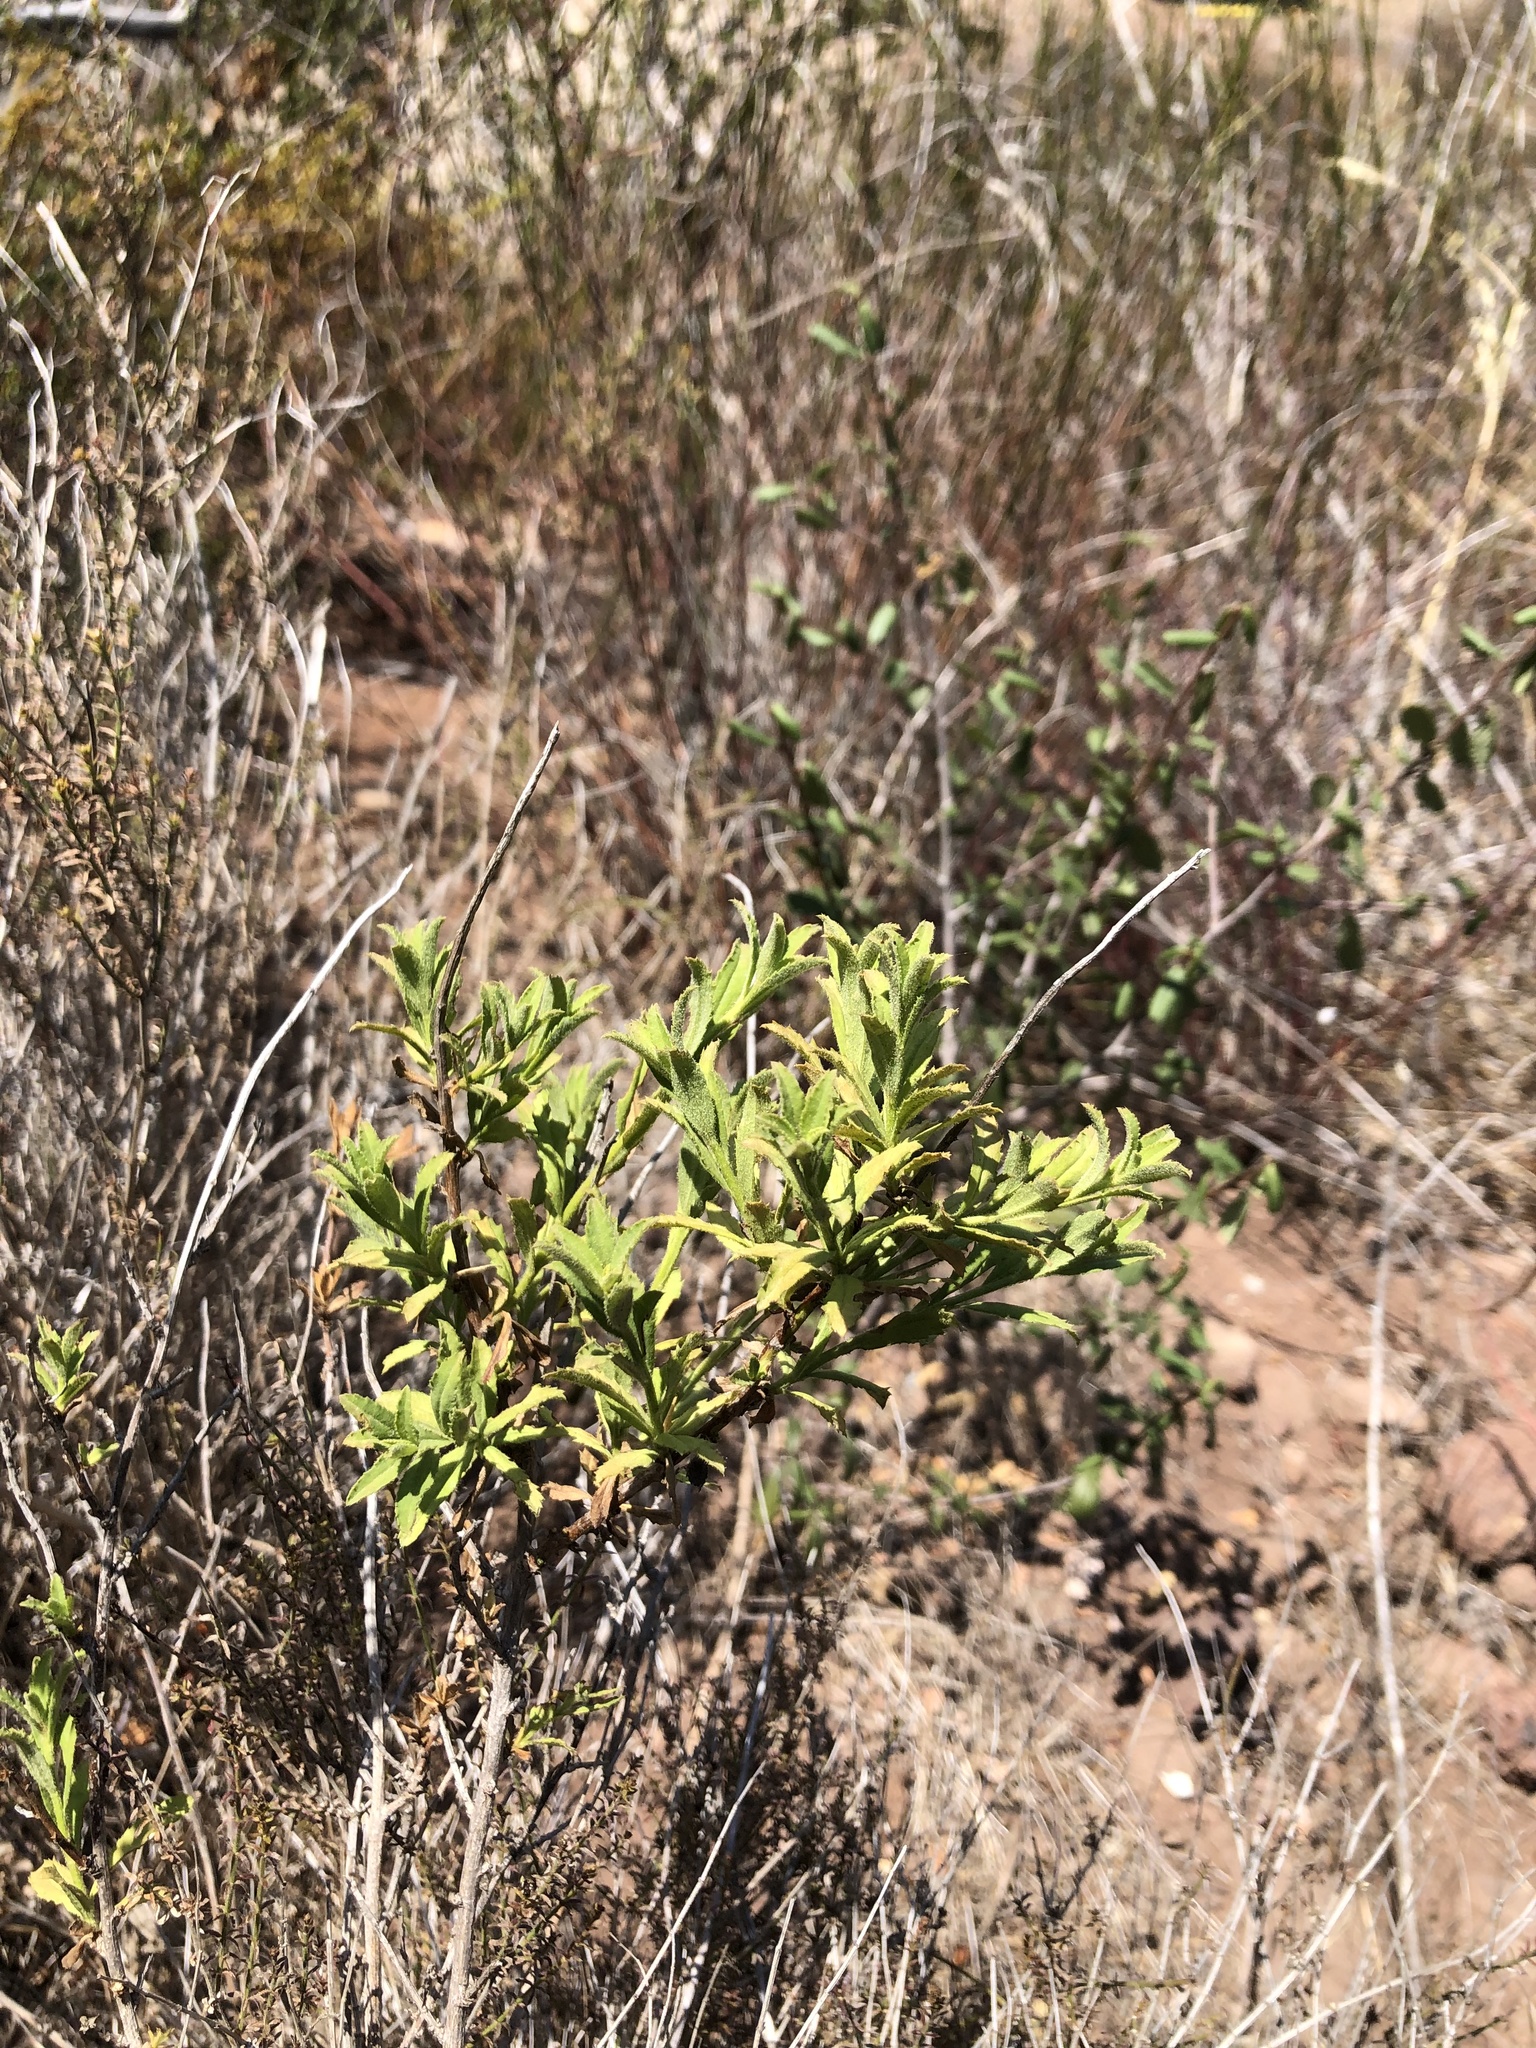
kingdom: Plantae
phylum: Tracheophyta
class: Magnoliopsida
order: Asterales
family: Asteraceae
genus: Baccharis
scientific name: Baccharis plummerae
